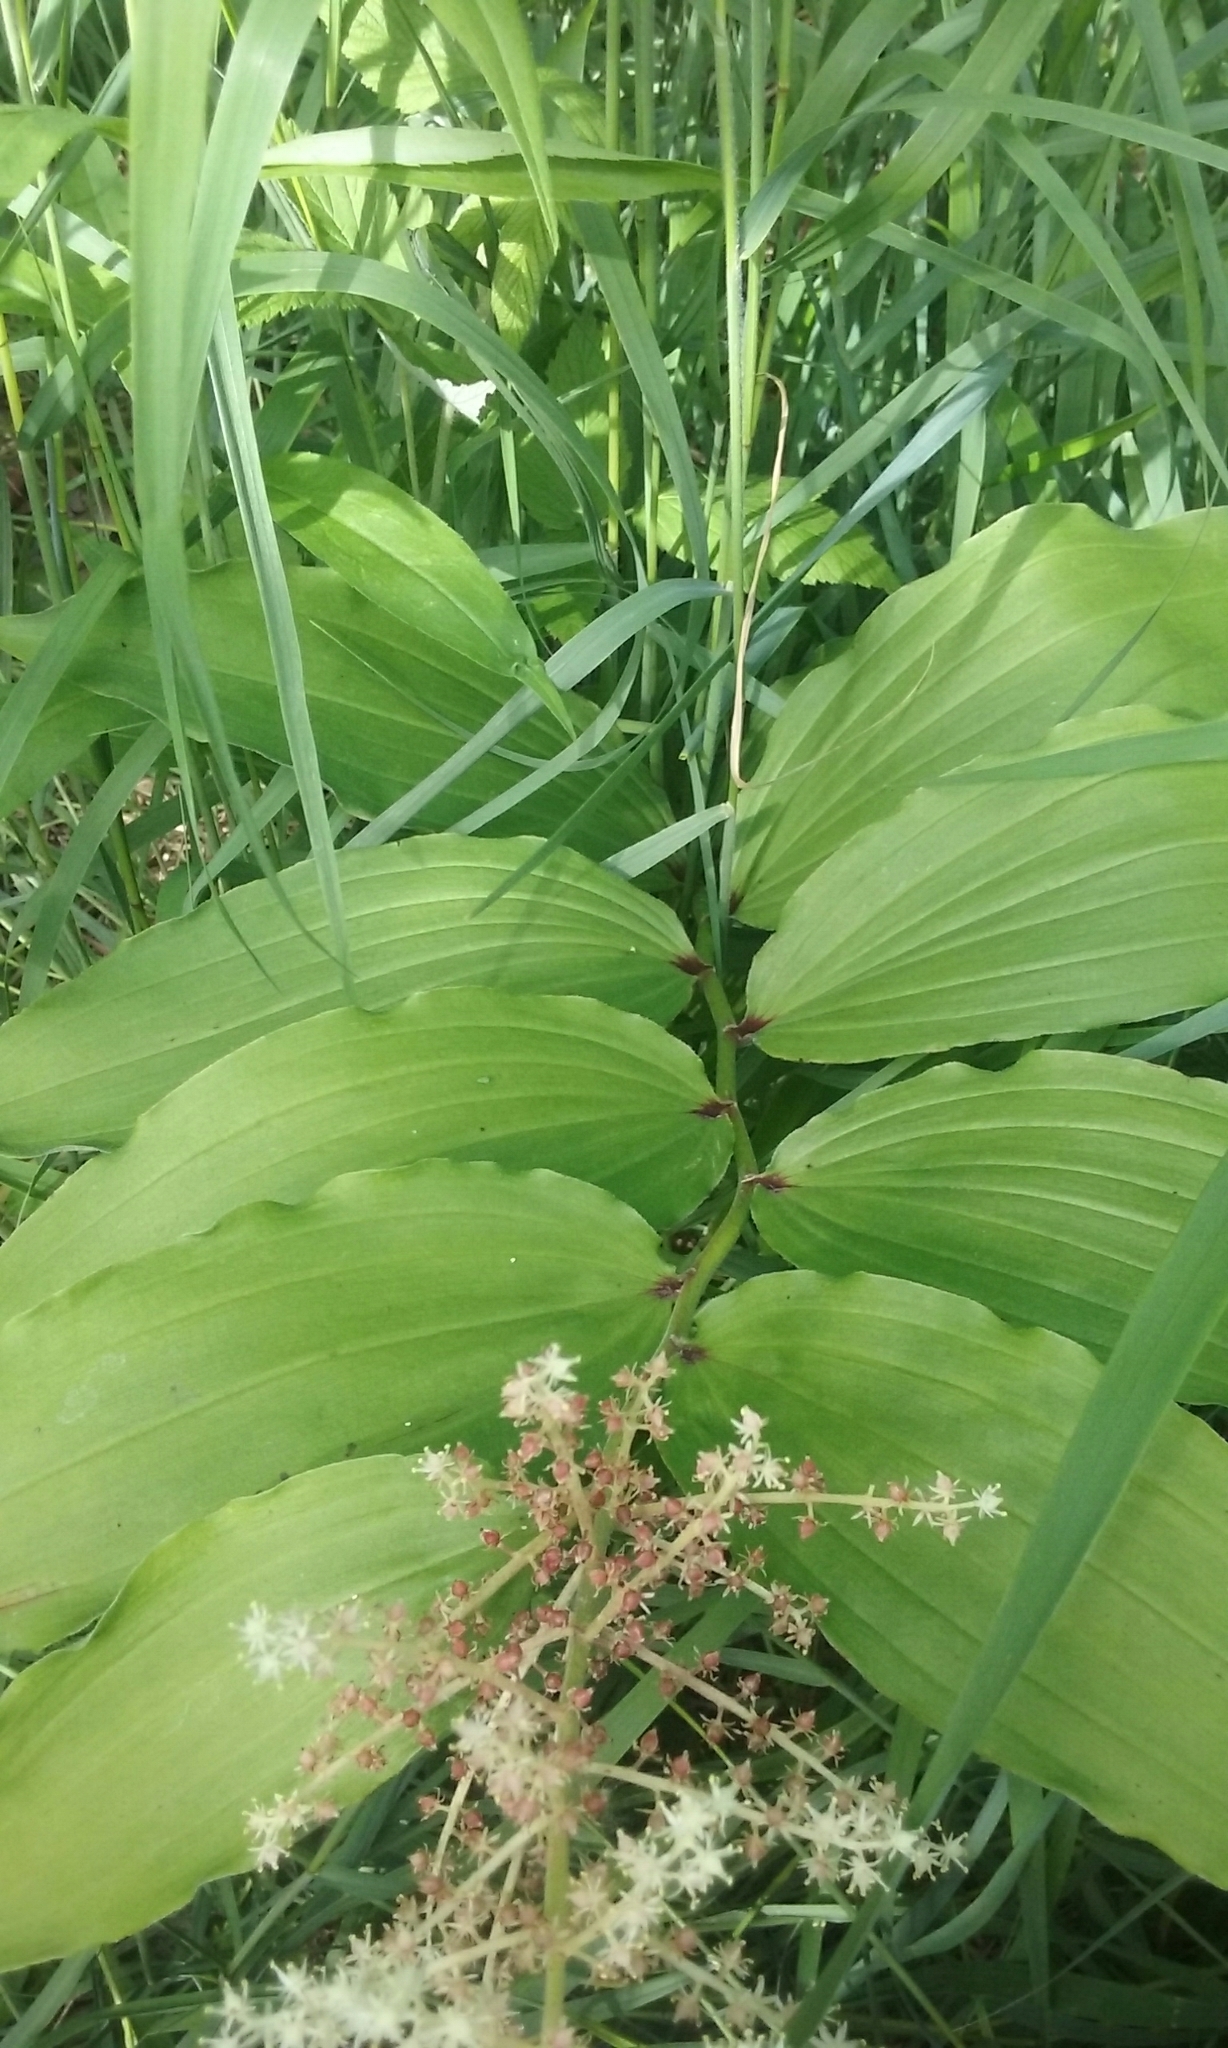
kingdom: Plantae
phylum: Tracheophyta
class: Liliopsida
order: Asparagales
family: Asparagaceae
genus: Maianthemum
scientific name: Maianthemum racemosum
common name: False spikenard
